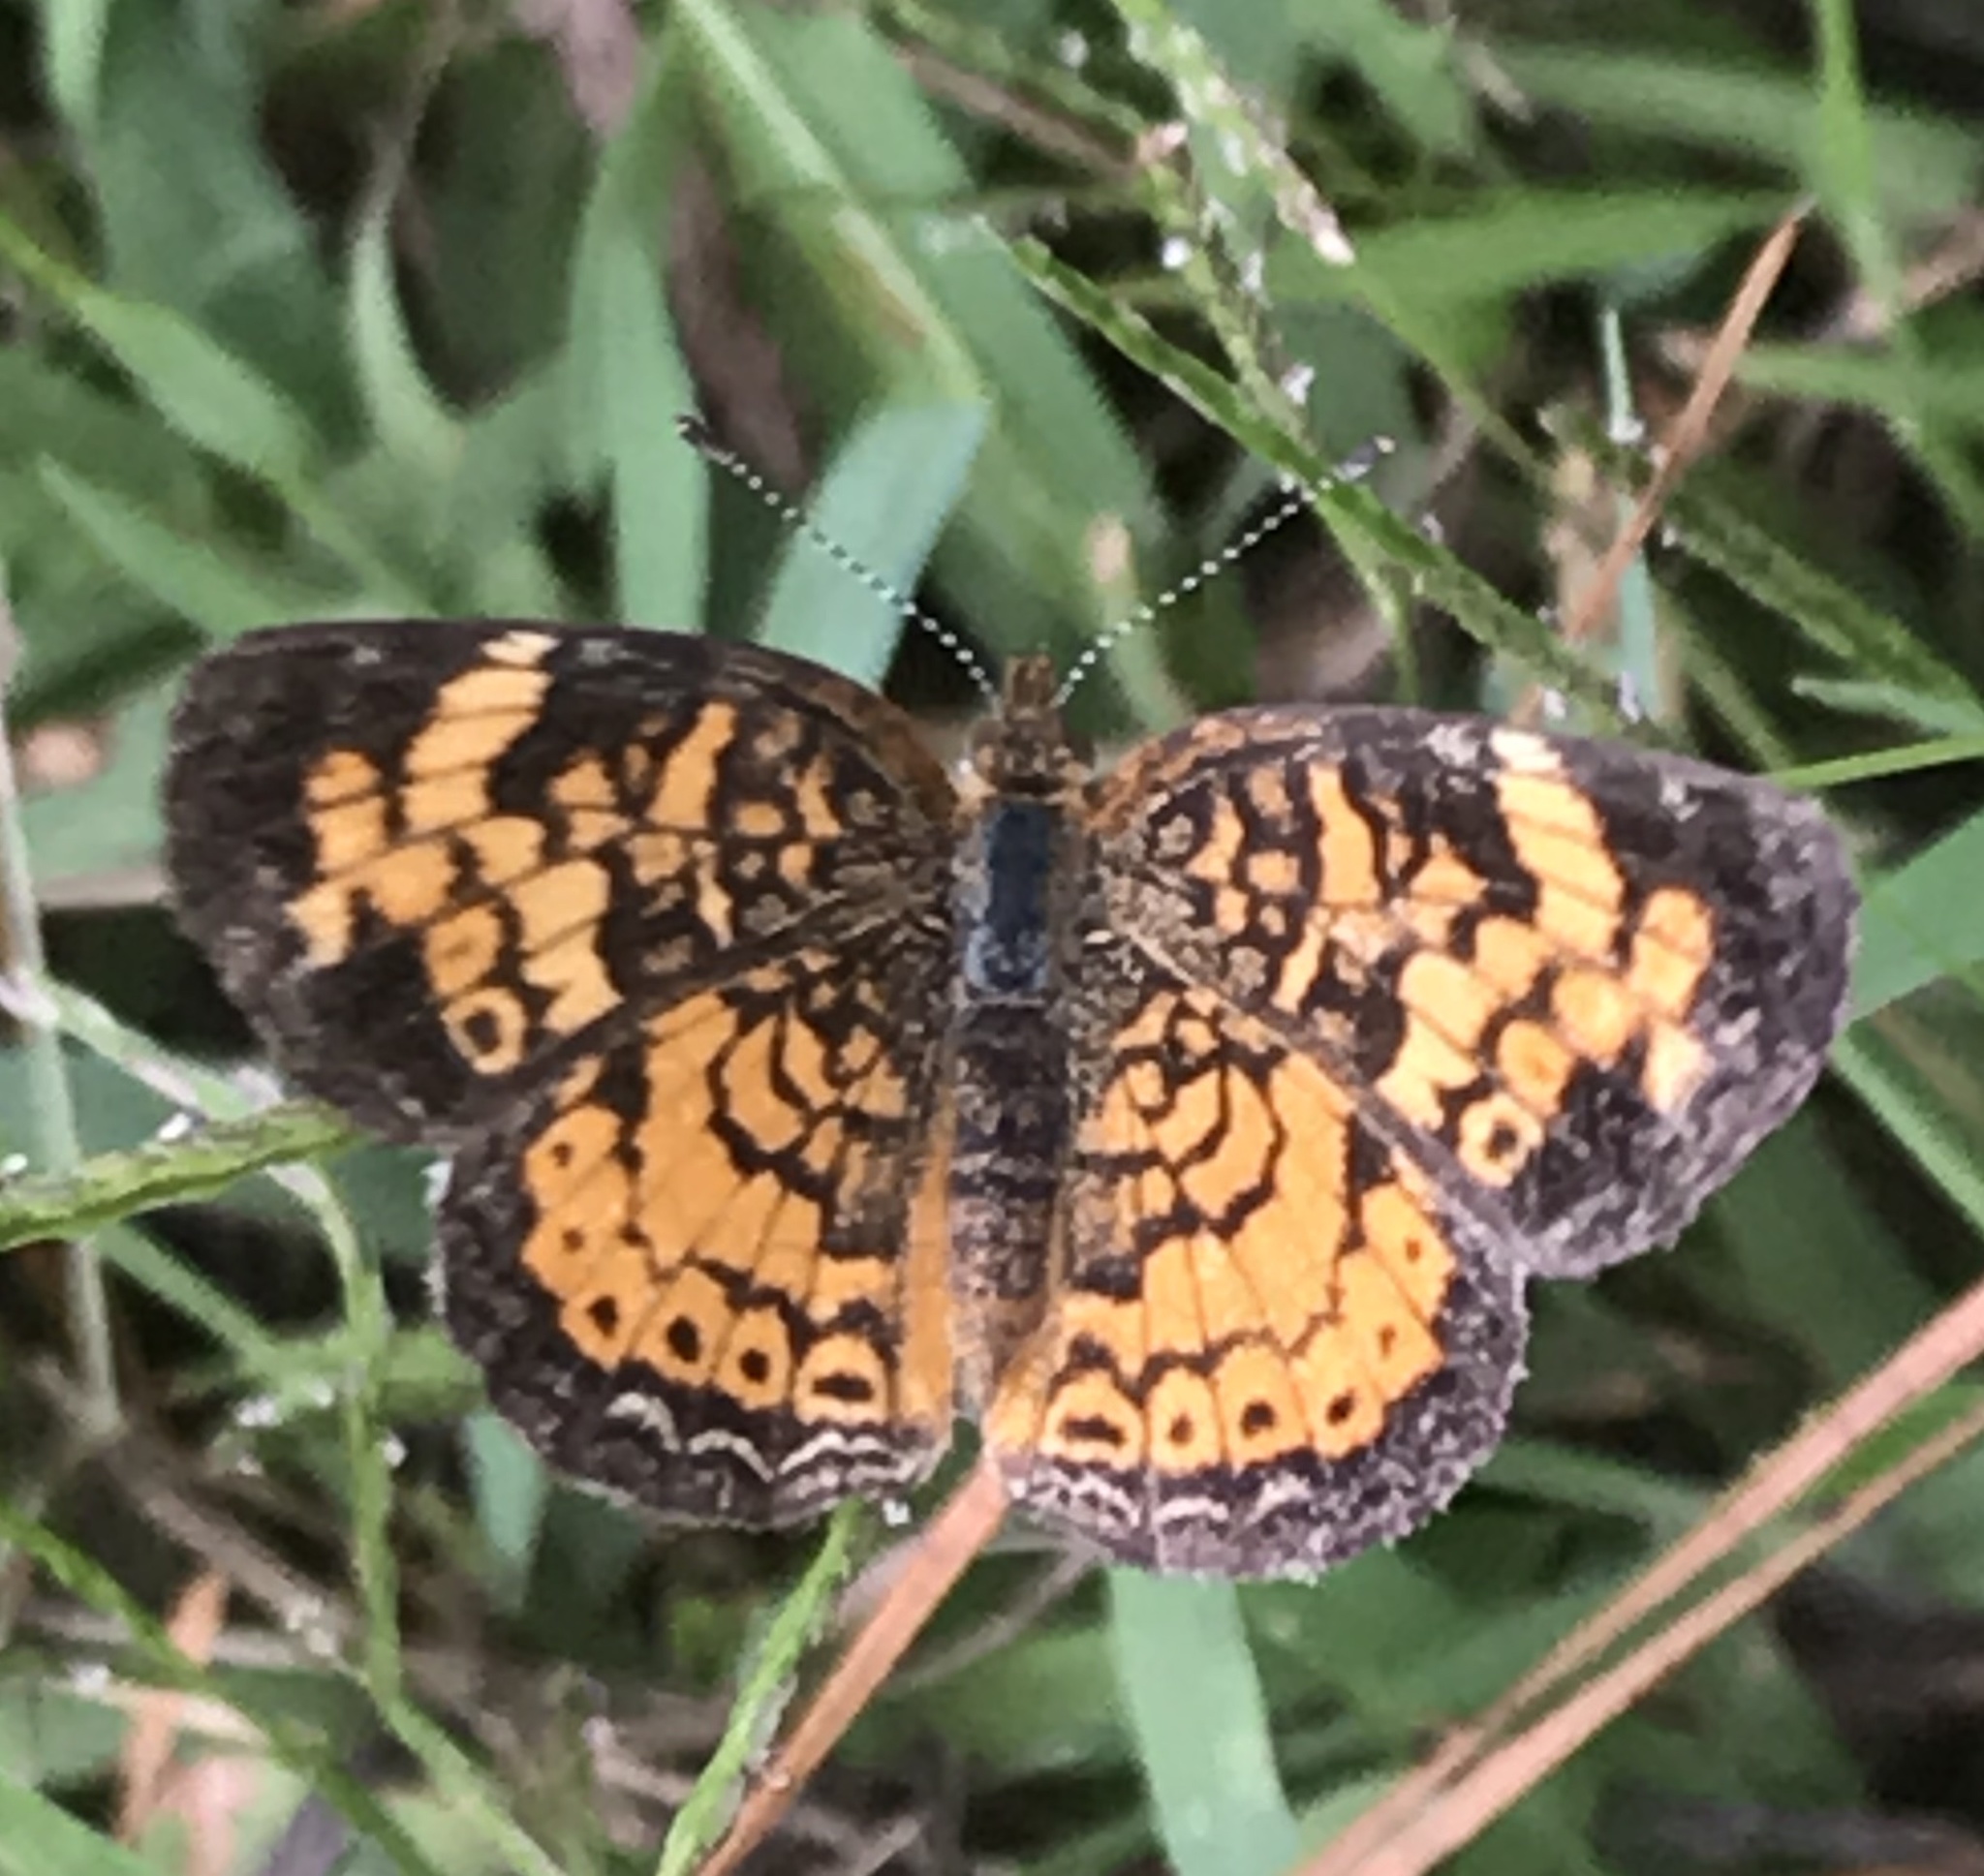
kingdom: Animalia
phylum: Arthropoda
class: Insecta
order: Lepidoptera
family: Nymphalidae
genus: Phyciodes
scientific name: Phyciodes tharos
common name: Pearl crescent
